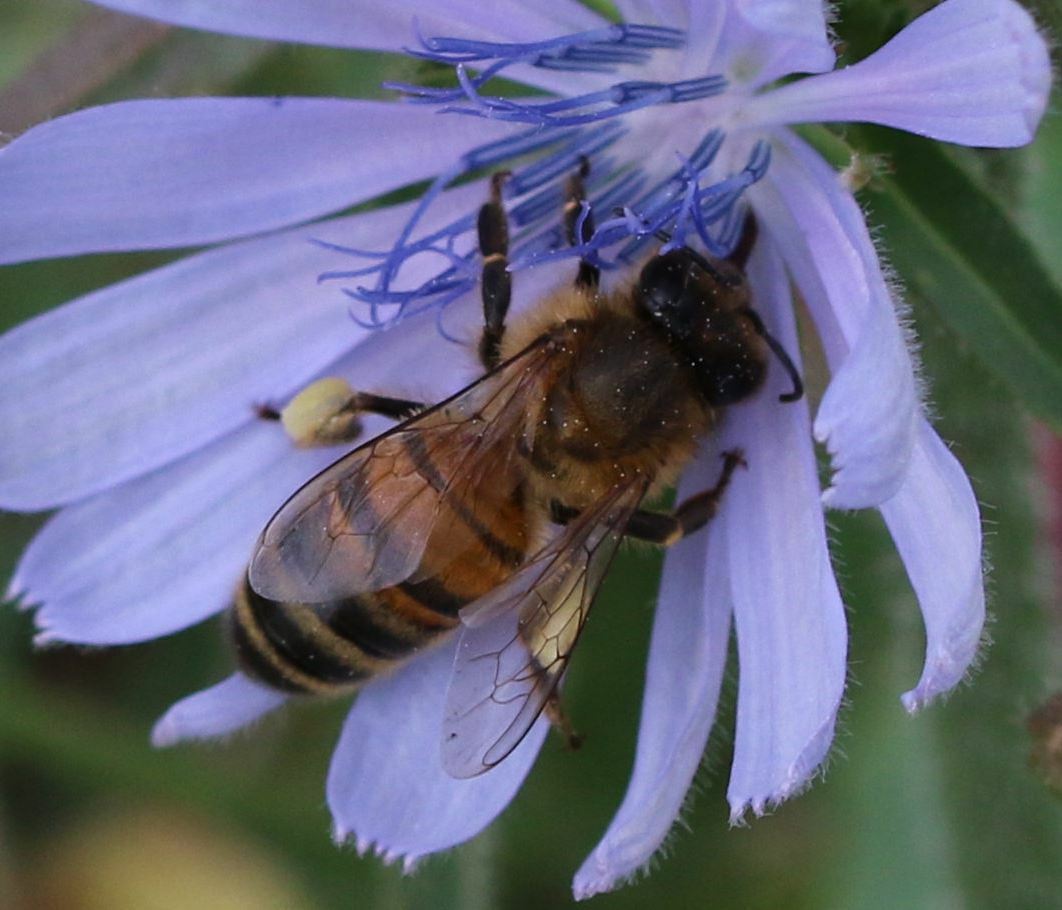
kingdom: Animalia
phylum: Arthropoda
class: Insecta
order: Hymenoptera
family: Apidae
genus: Apis
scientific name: Apis mellifera
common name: Honey bee
